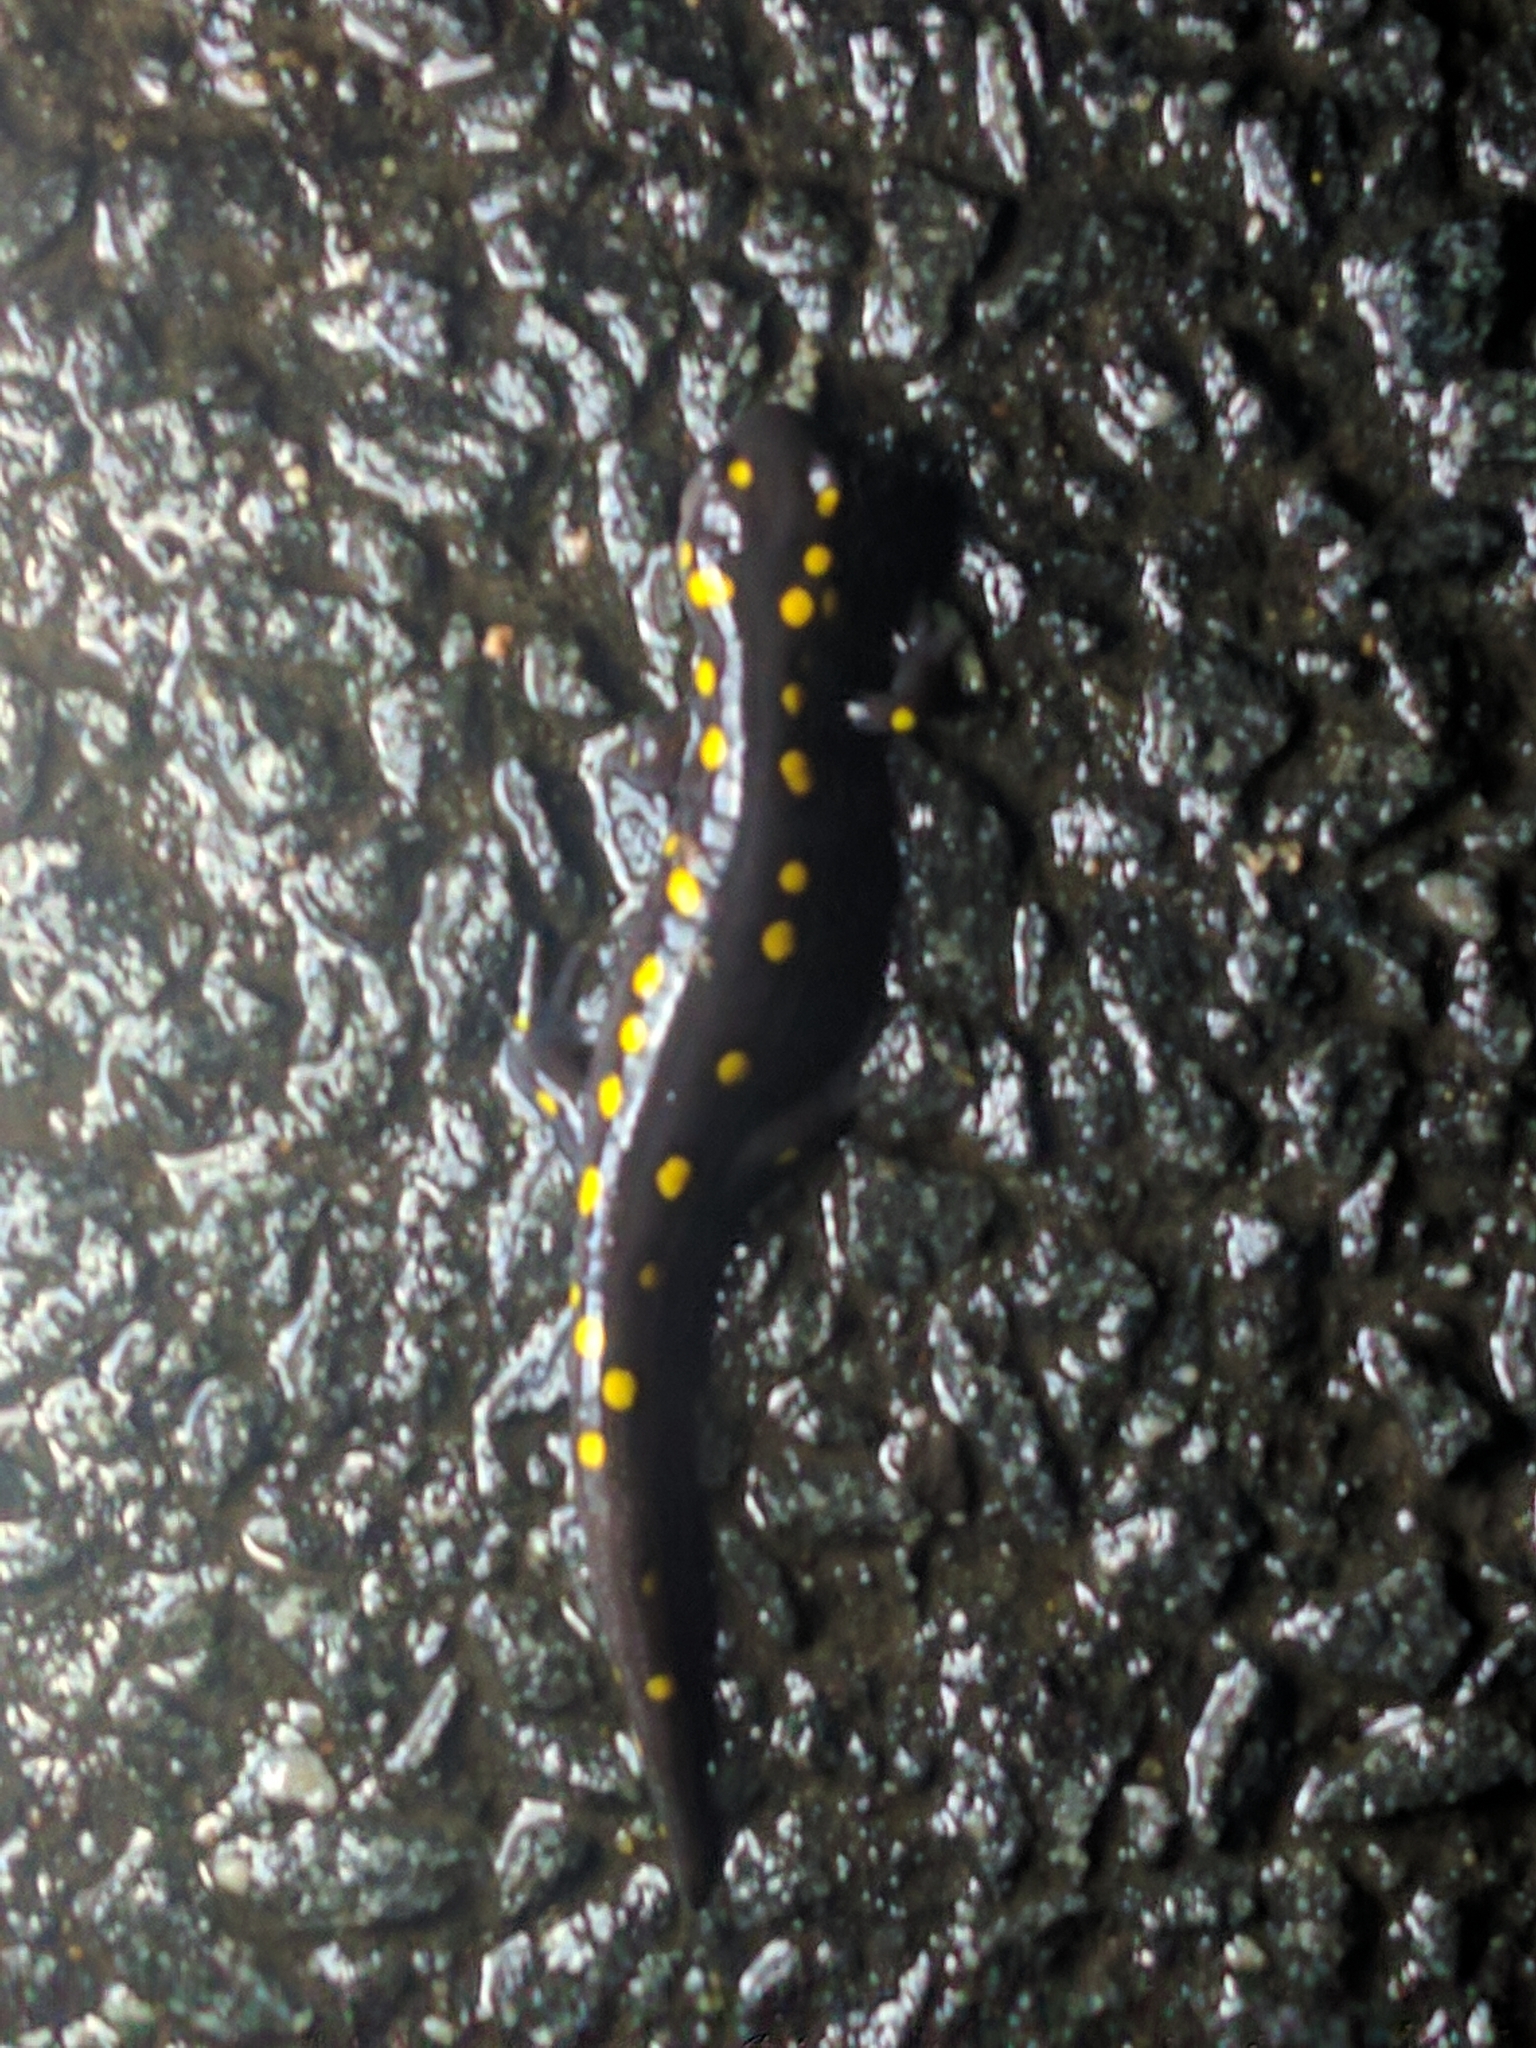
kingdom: Animalia
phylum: Chordata
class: Amphibia
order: Caudata
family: Ambystomatidae
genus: Ambystoma
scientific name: Ambystoma maculatum
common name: Spotted salamander
